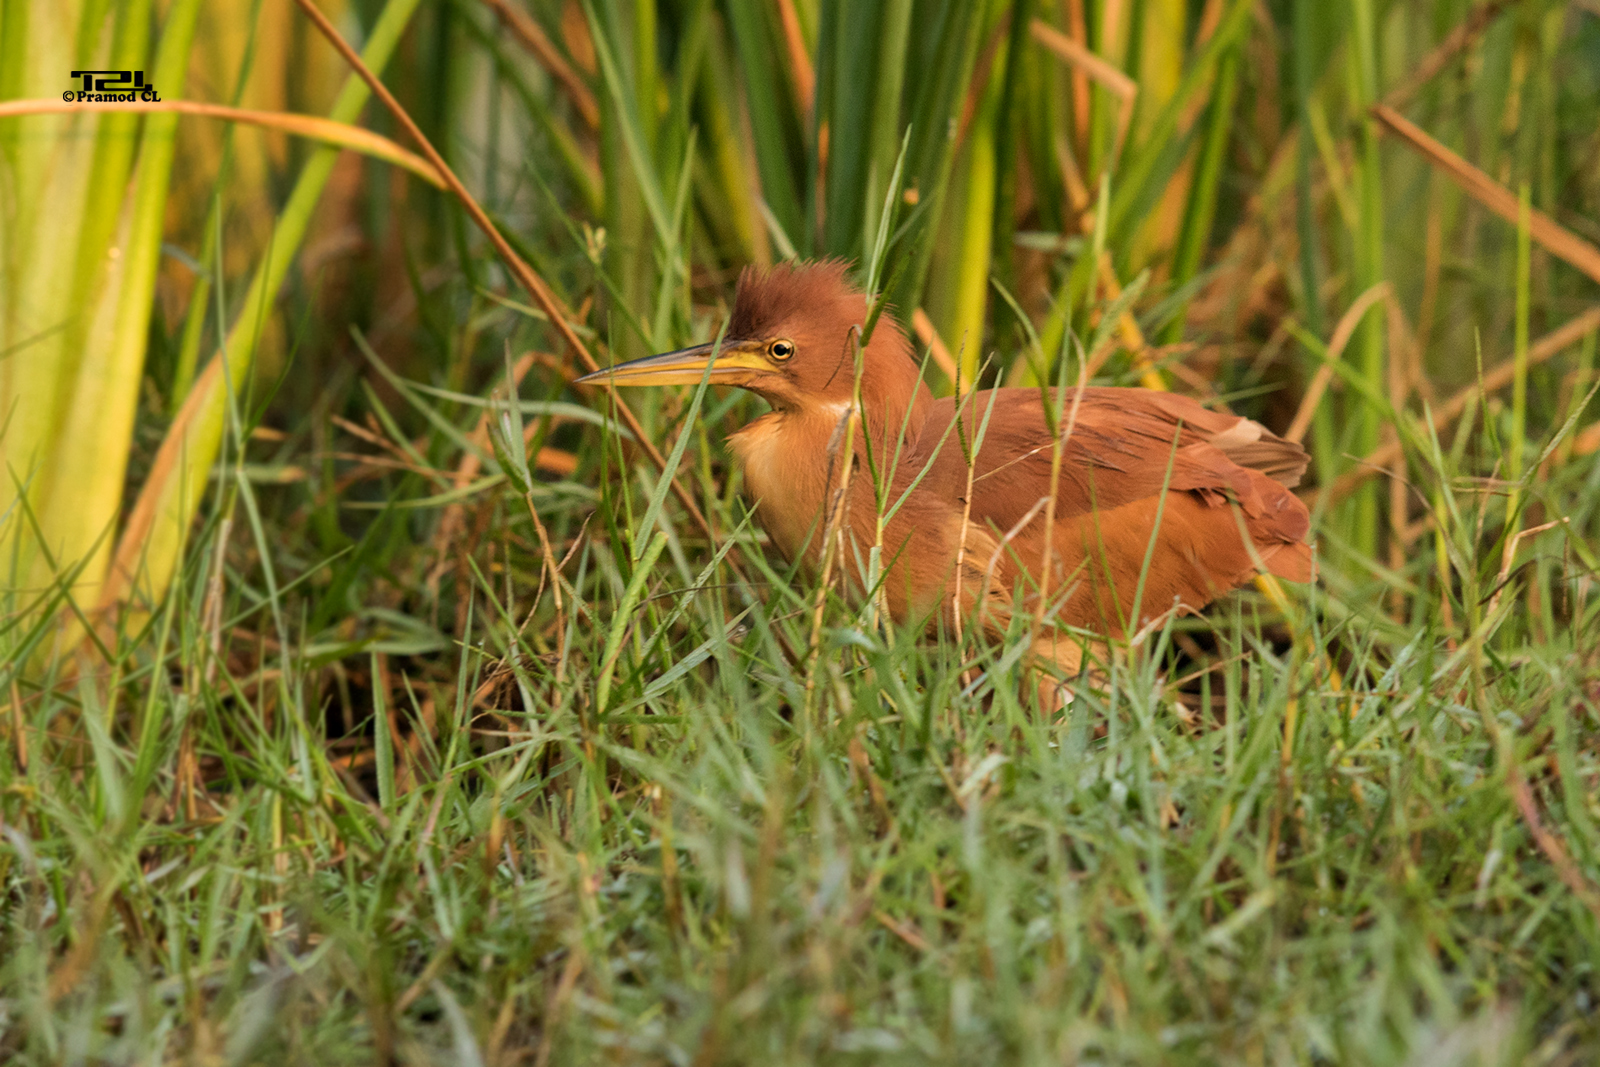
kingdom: Animalia
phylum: Chordata
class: Aves
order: Pelecaniformes
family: Ardeidae
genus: Ixobrychus
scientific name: Ixobrychus cinnamomeus
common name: Cinnamon bittern
